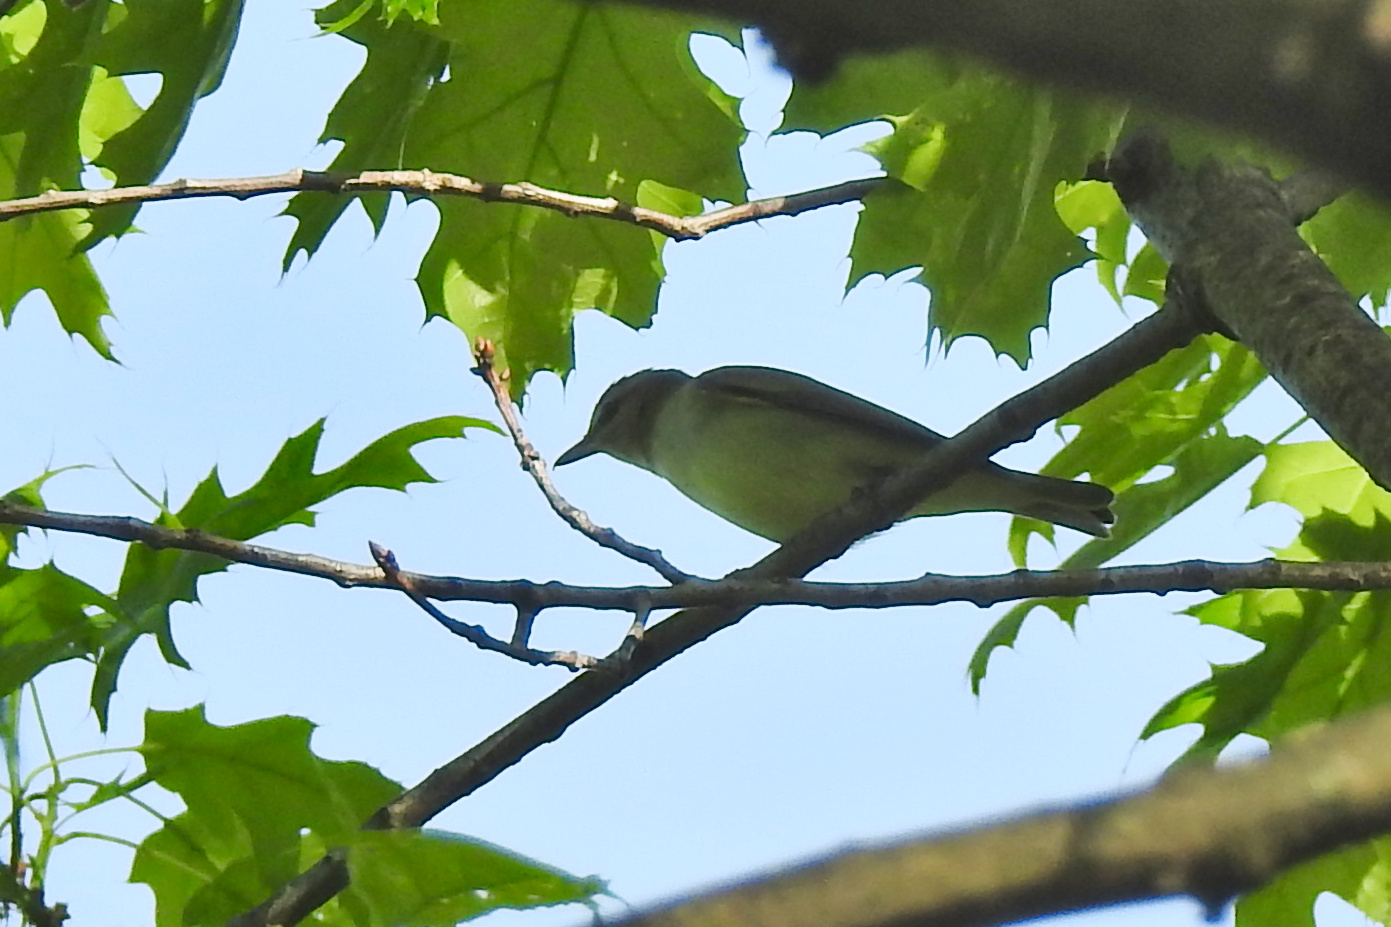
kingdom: Animalia
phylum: Chordata
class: Aves
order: Passeriformes
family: Vireonidae
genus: Vireo
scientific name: Vireo olivaceus
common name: Red-eyed vireo
